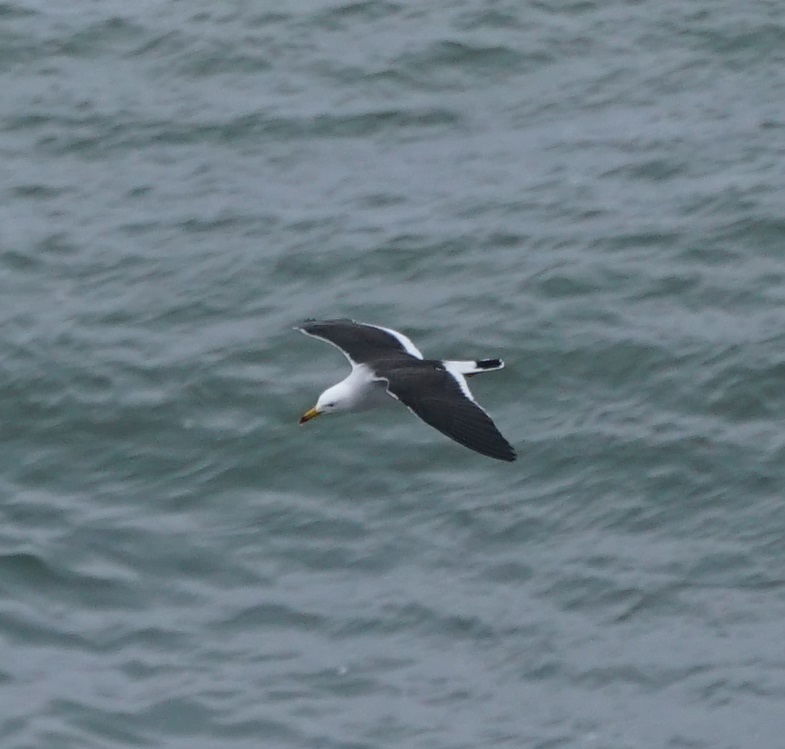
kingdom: Animalia
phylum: Chordata
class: Aves
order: Charadriiformes
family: Laridae
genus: Larus
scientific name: Larus belcheri
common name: Belcher's gull
